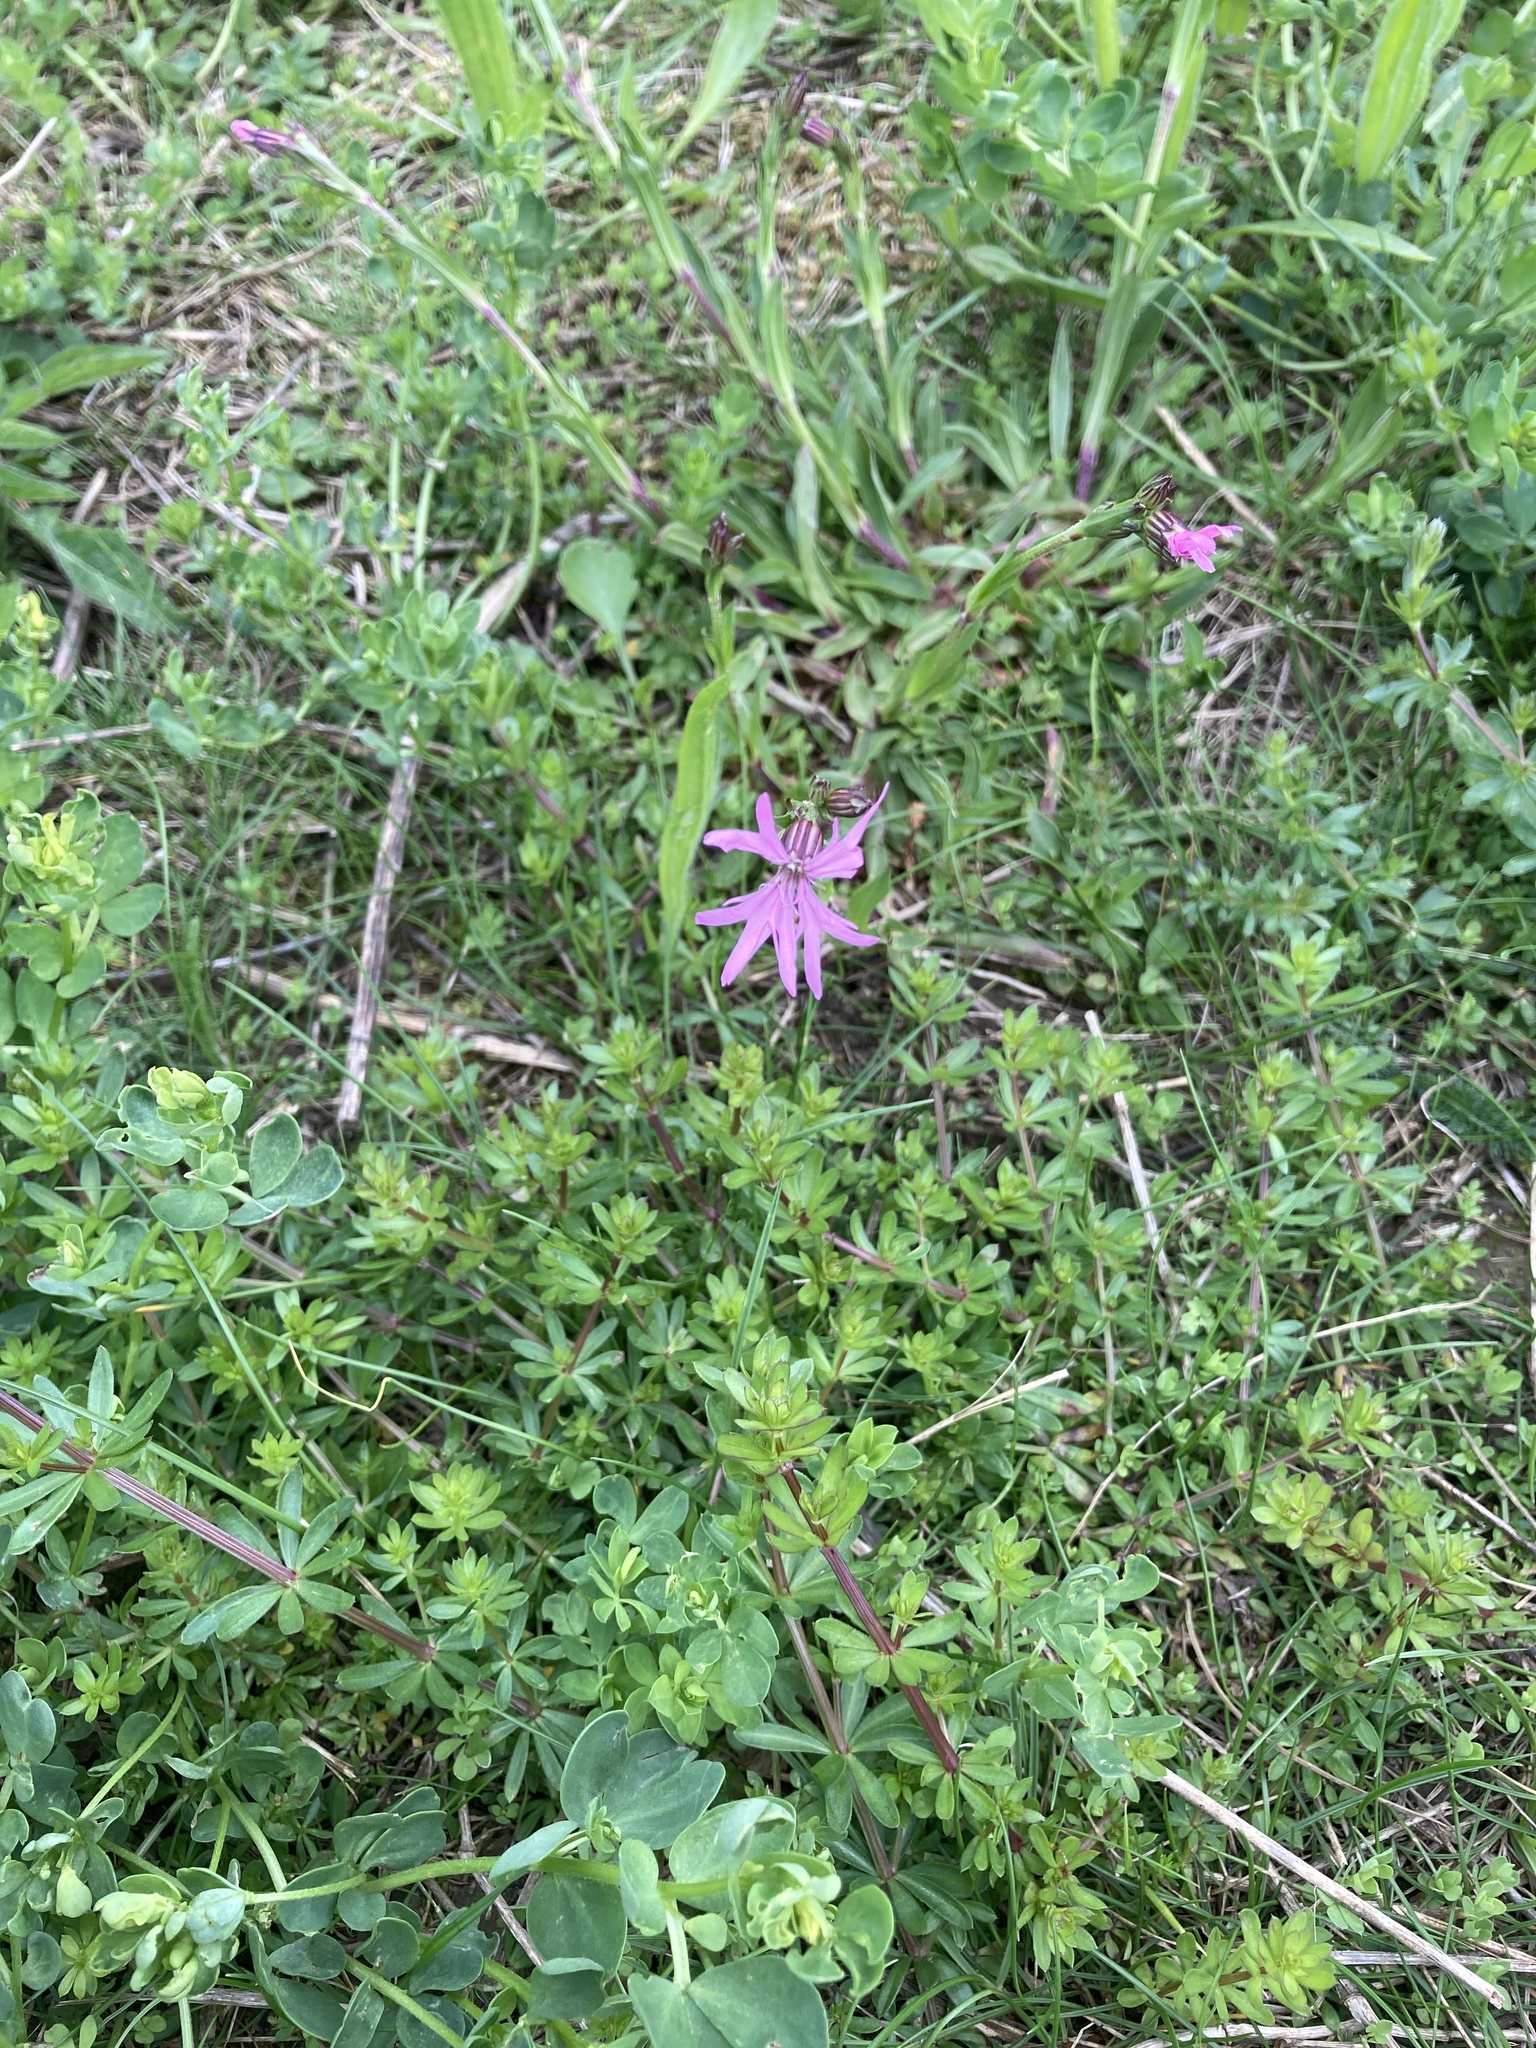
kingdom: Plantae
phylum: Tracheophyta
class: Magnoliopsida
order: Caryophyllales
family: Caryophyllaceae
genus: Silene
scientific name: Silene flos-cuculi
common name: Ragged-robin
